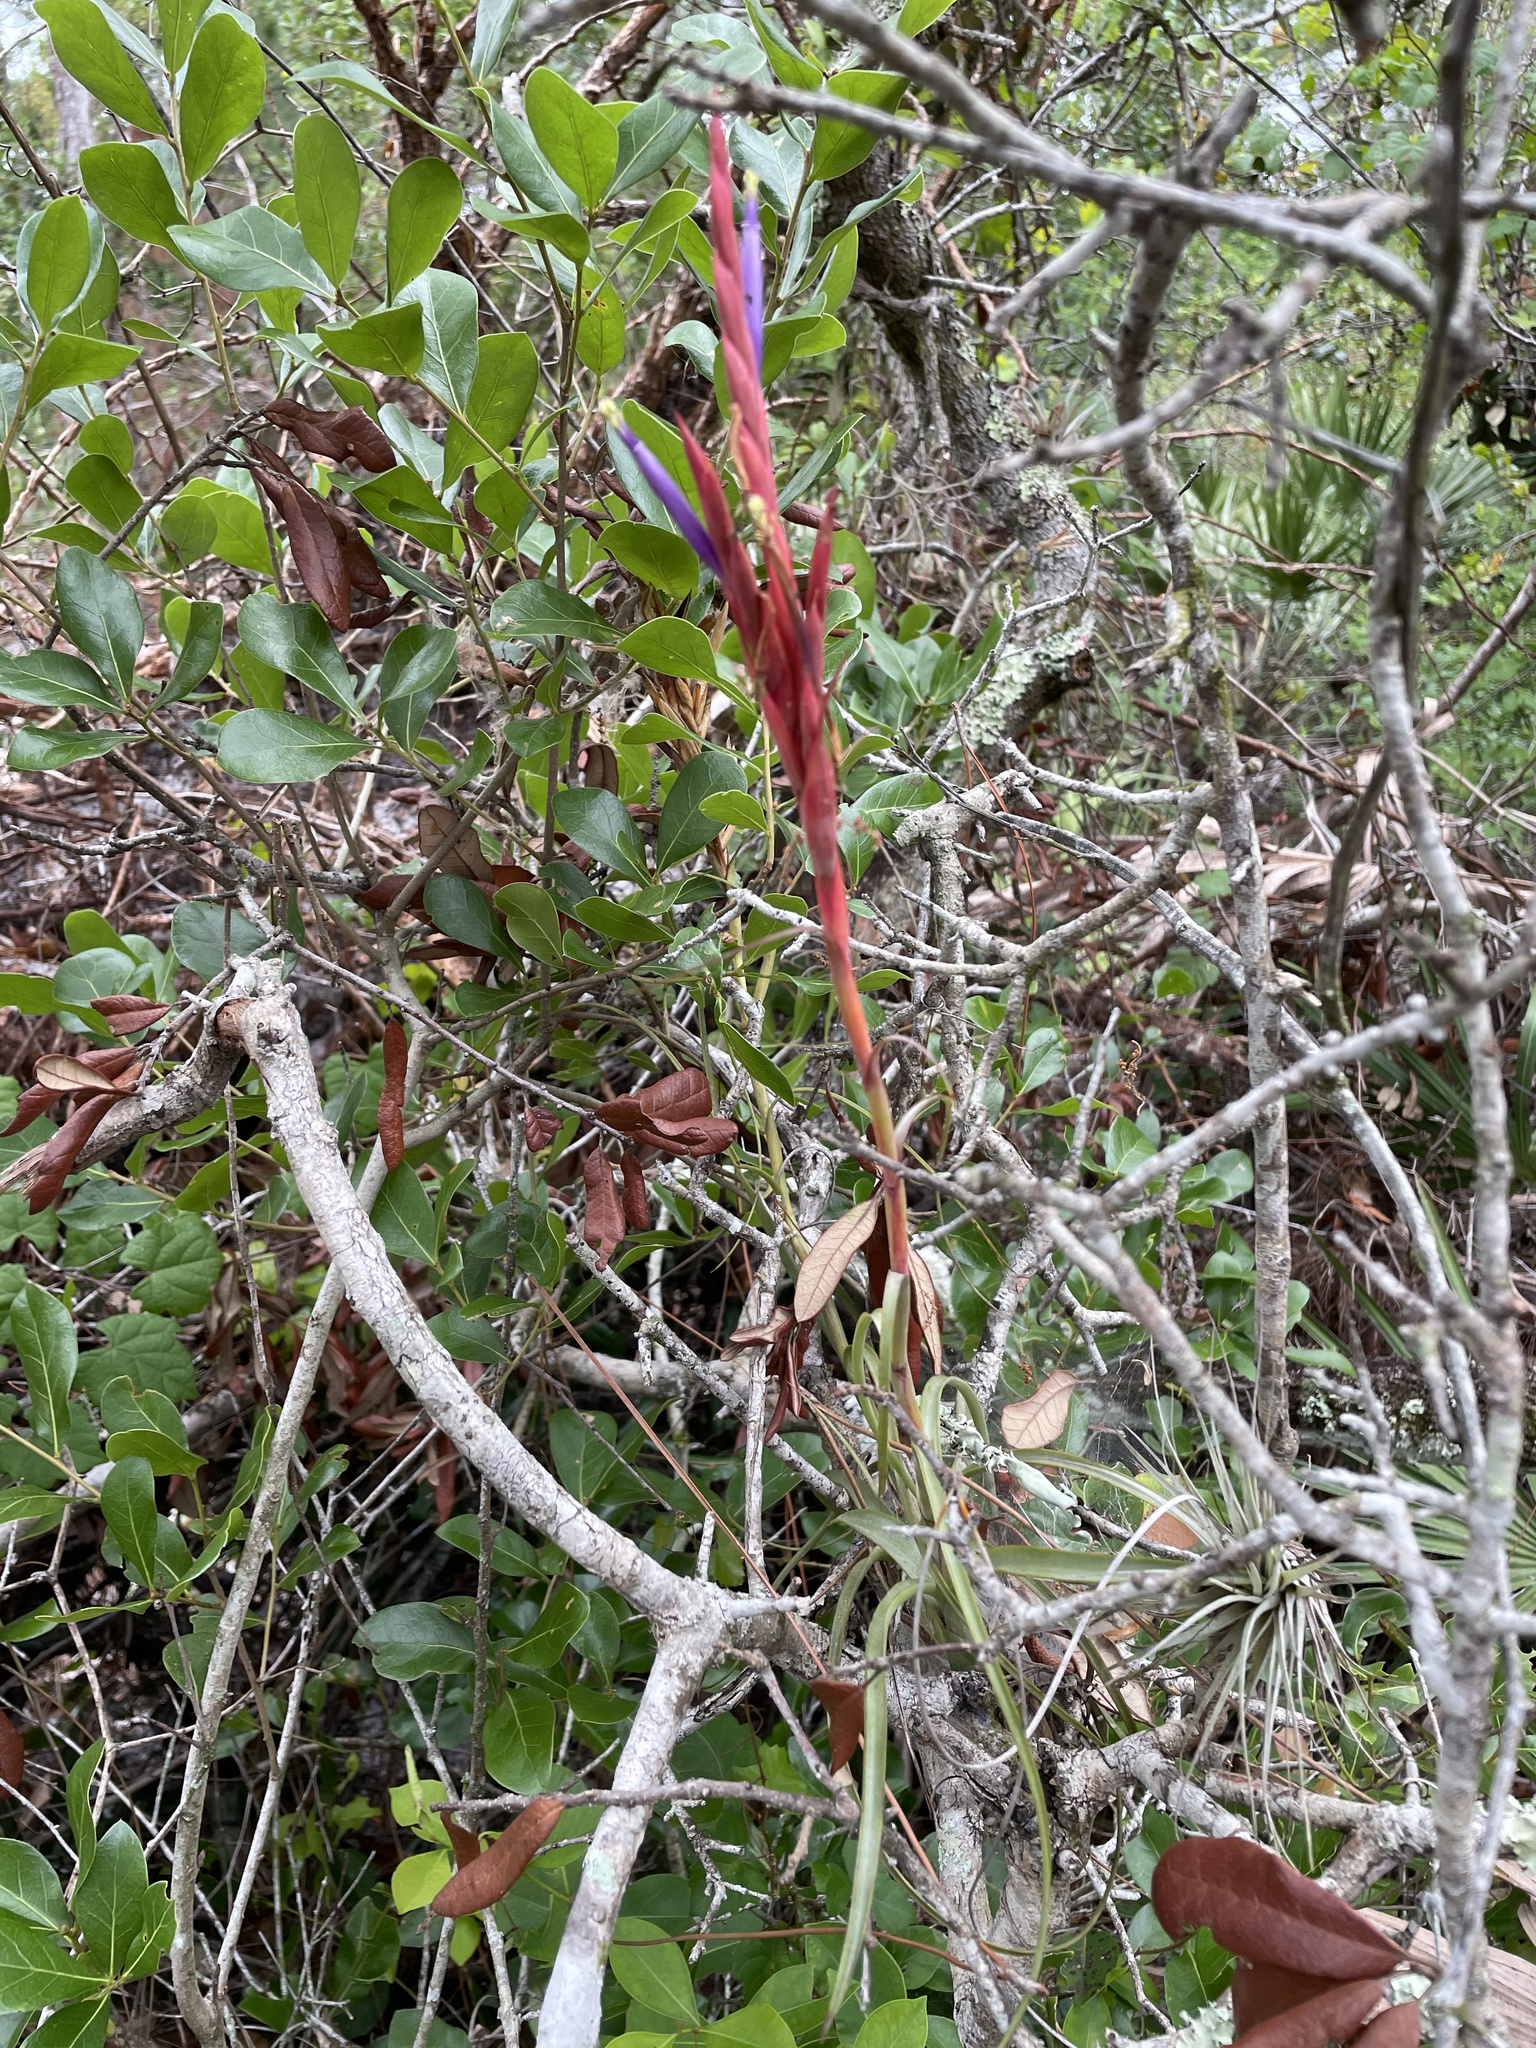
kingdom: Plantae
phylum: Tracheophyta
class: Liliopsida
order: Poales
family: Bromeliaceae
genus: Tillandsia
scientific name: Tillandsia balbisiana
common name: Northern needleleaf
